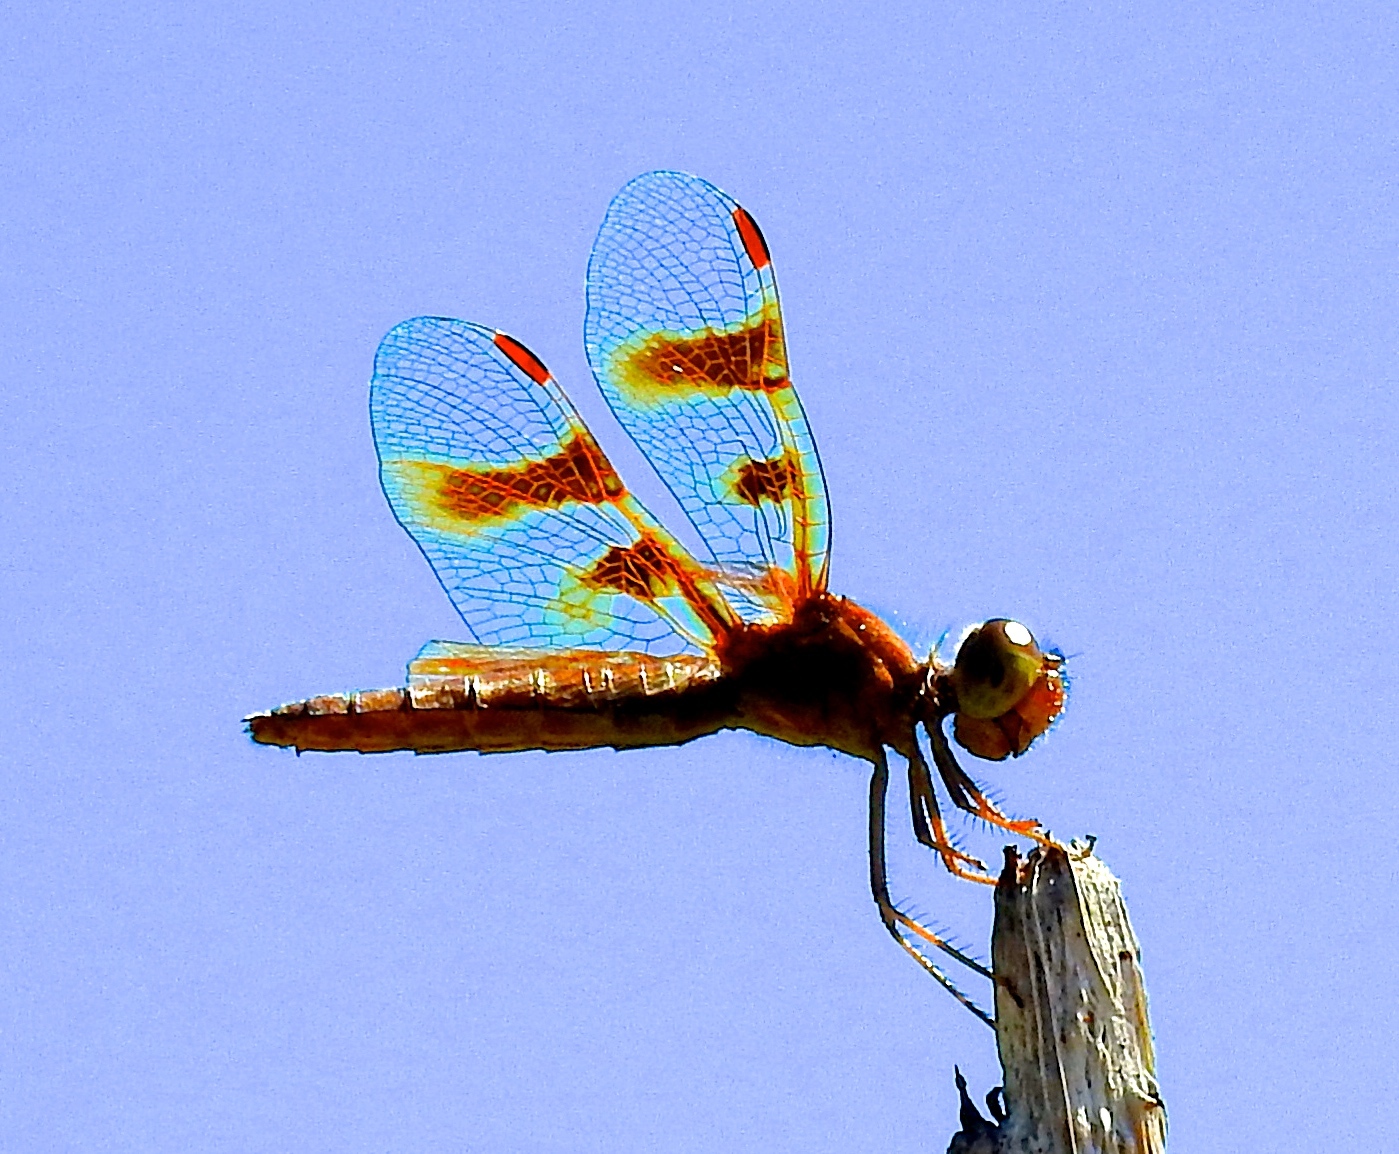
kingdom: Animalia
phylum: Arthropoda
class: Insecta
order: Odonata
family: Libellulidae
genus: Perithemis
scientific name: Perithemis intensa
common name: Mexican amberwing
